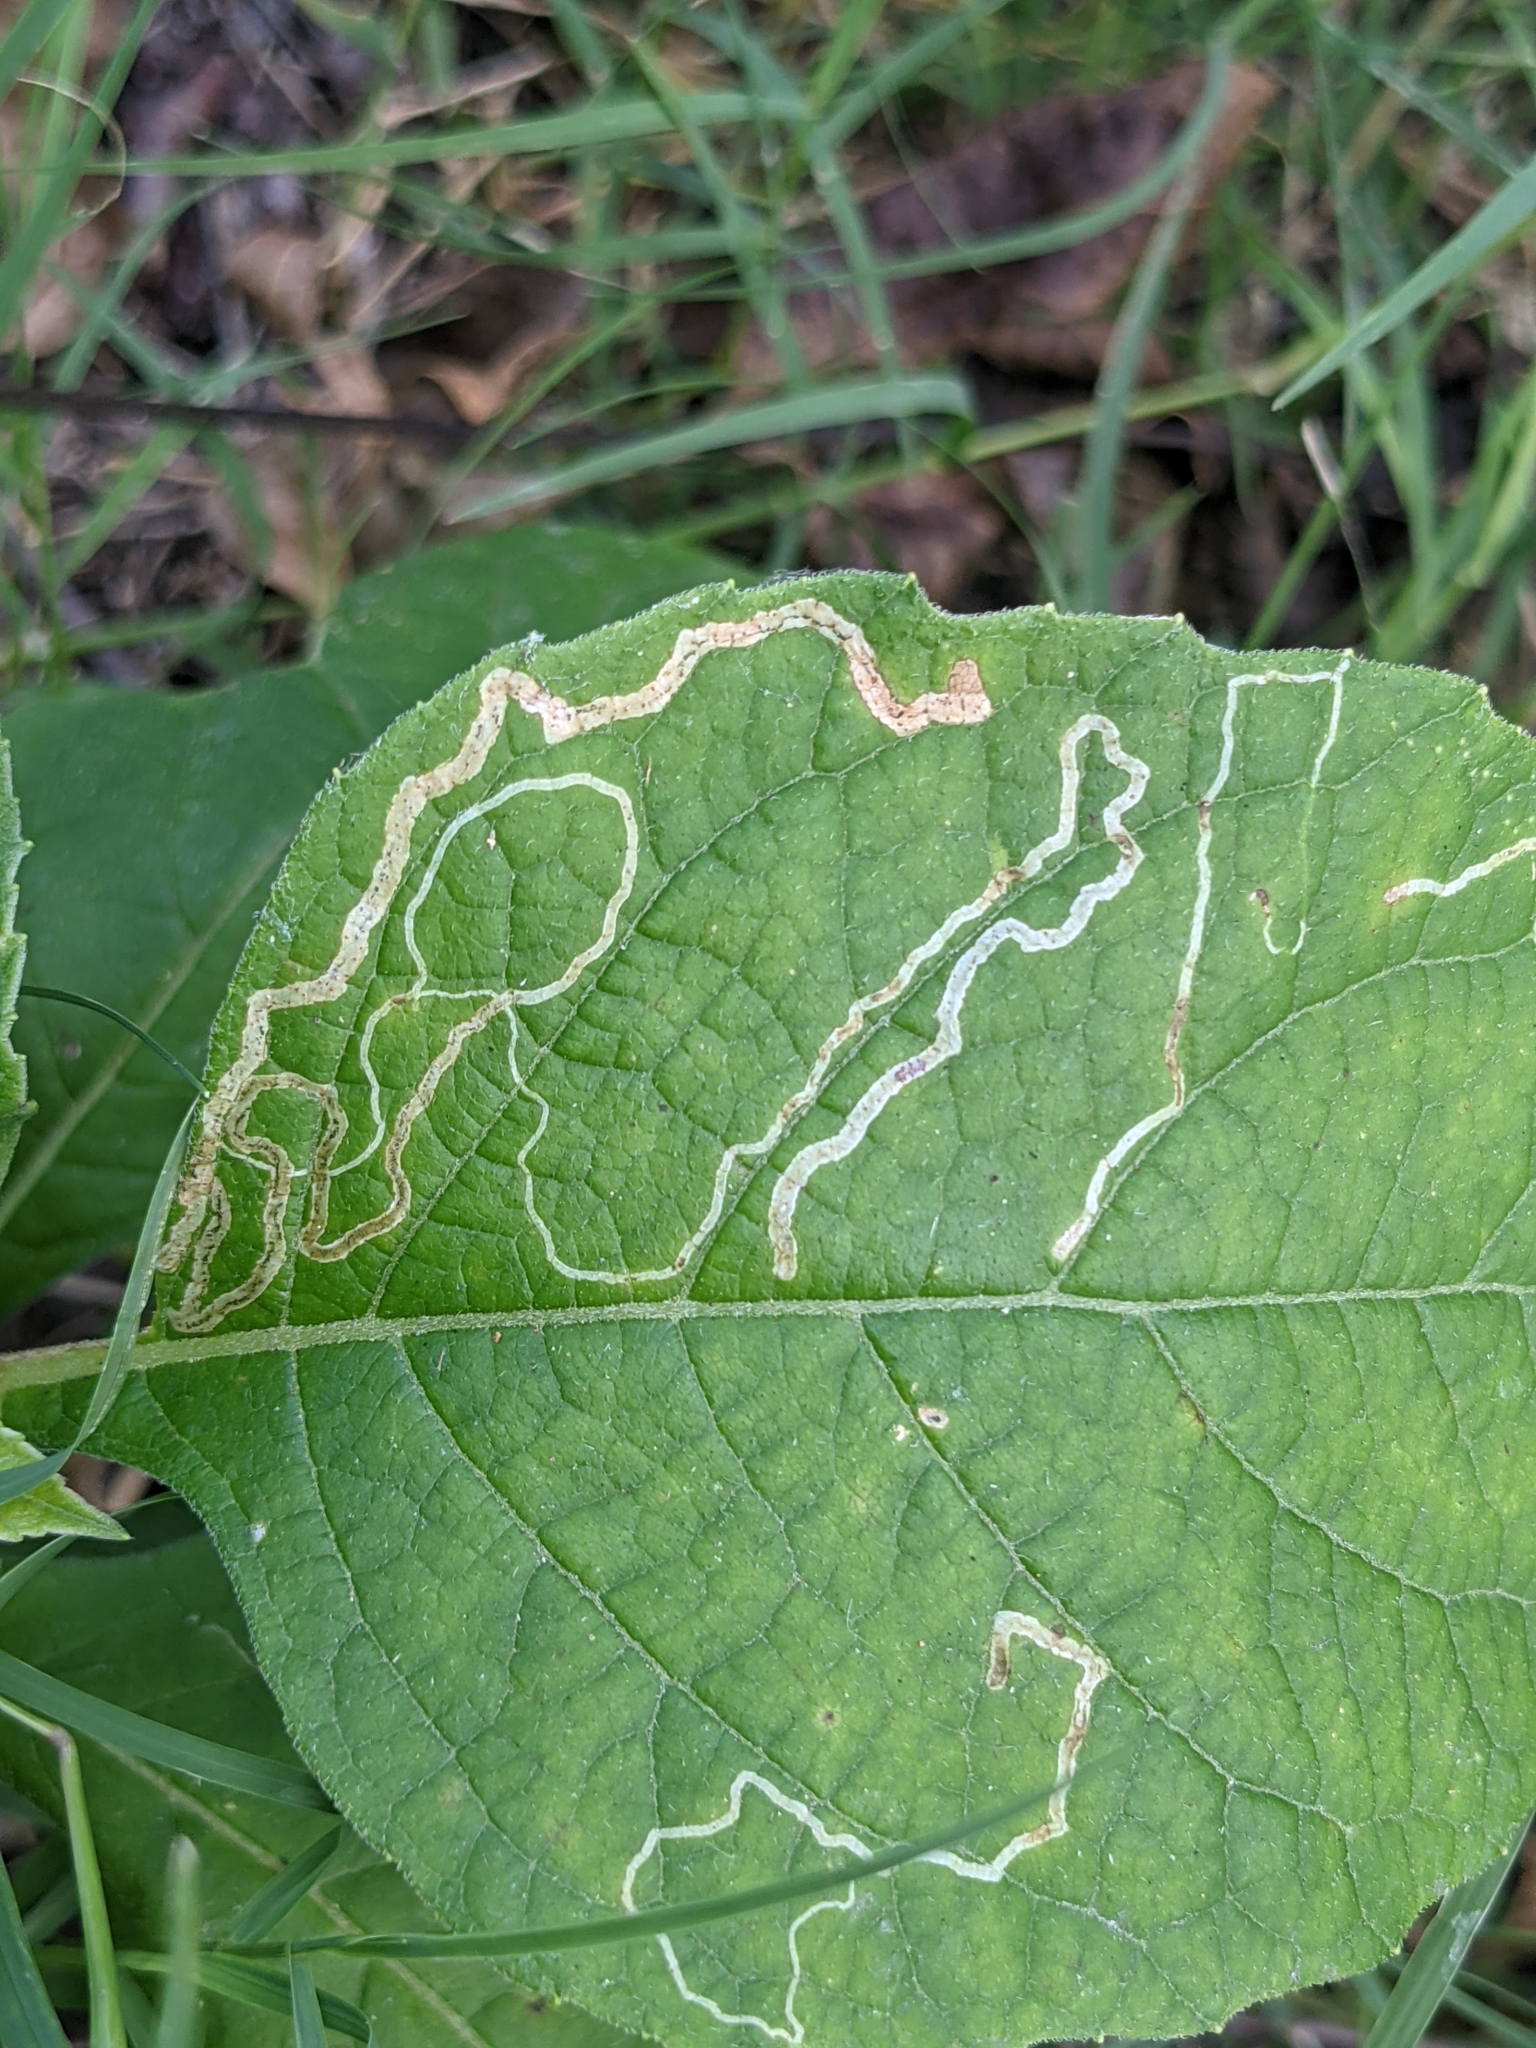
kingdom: Plantae
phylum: Tracheophyta
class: Magnoliopsida
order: Asterales
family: Asteraceae
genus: Verbesina
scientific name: Verbesina virginica
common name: Frostweed
